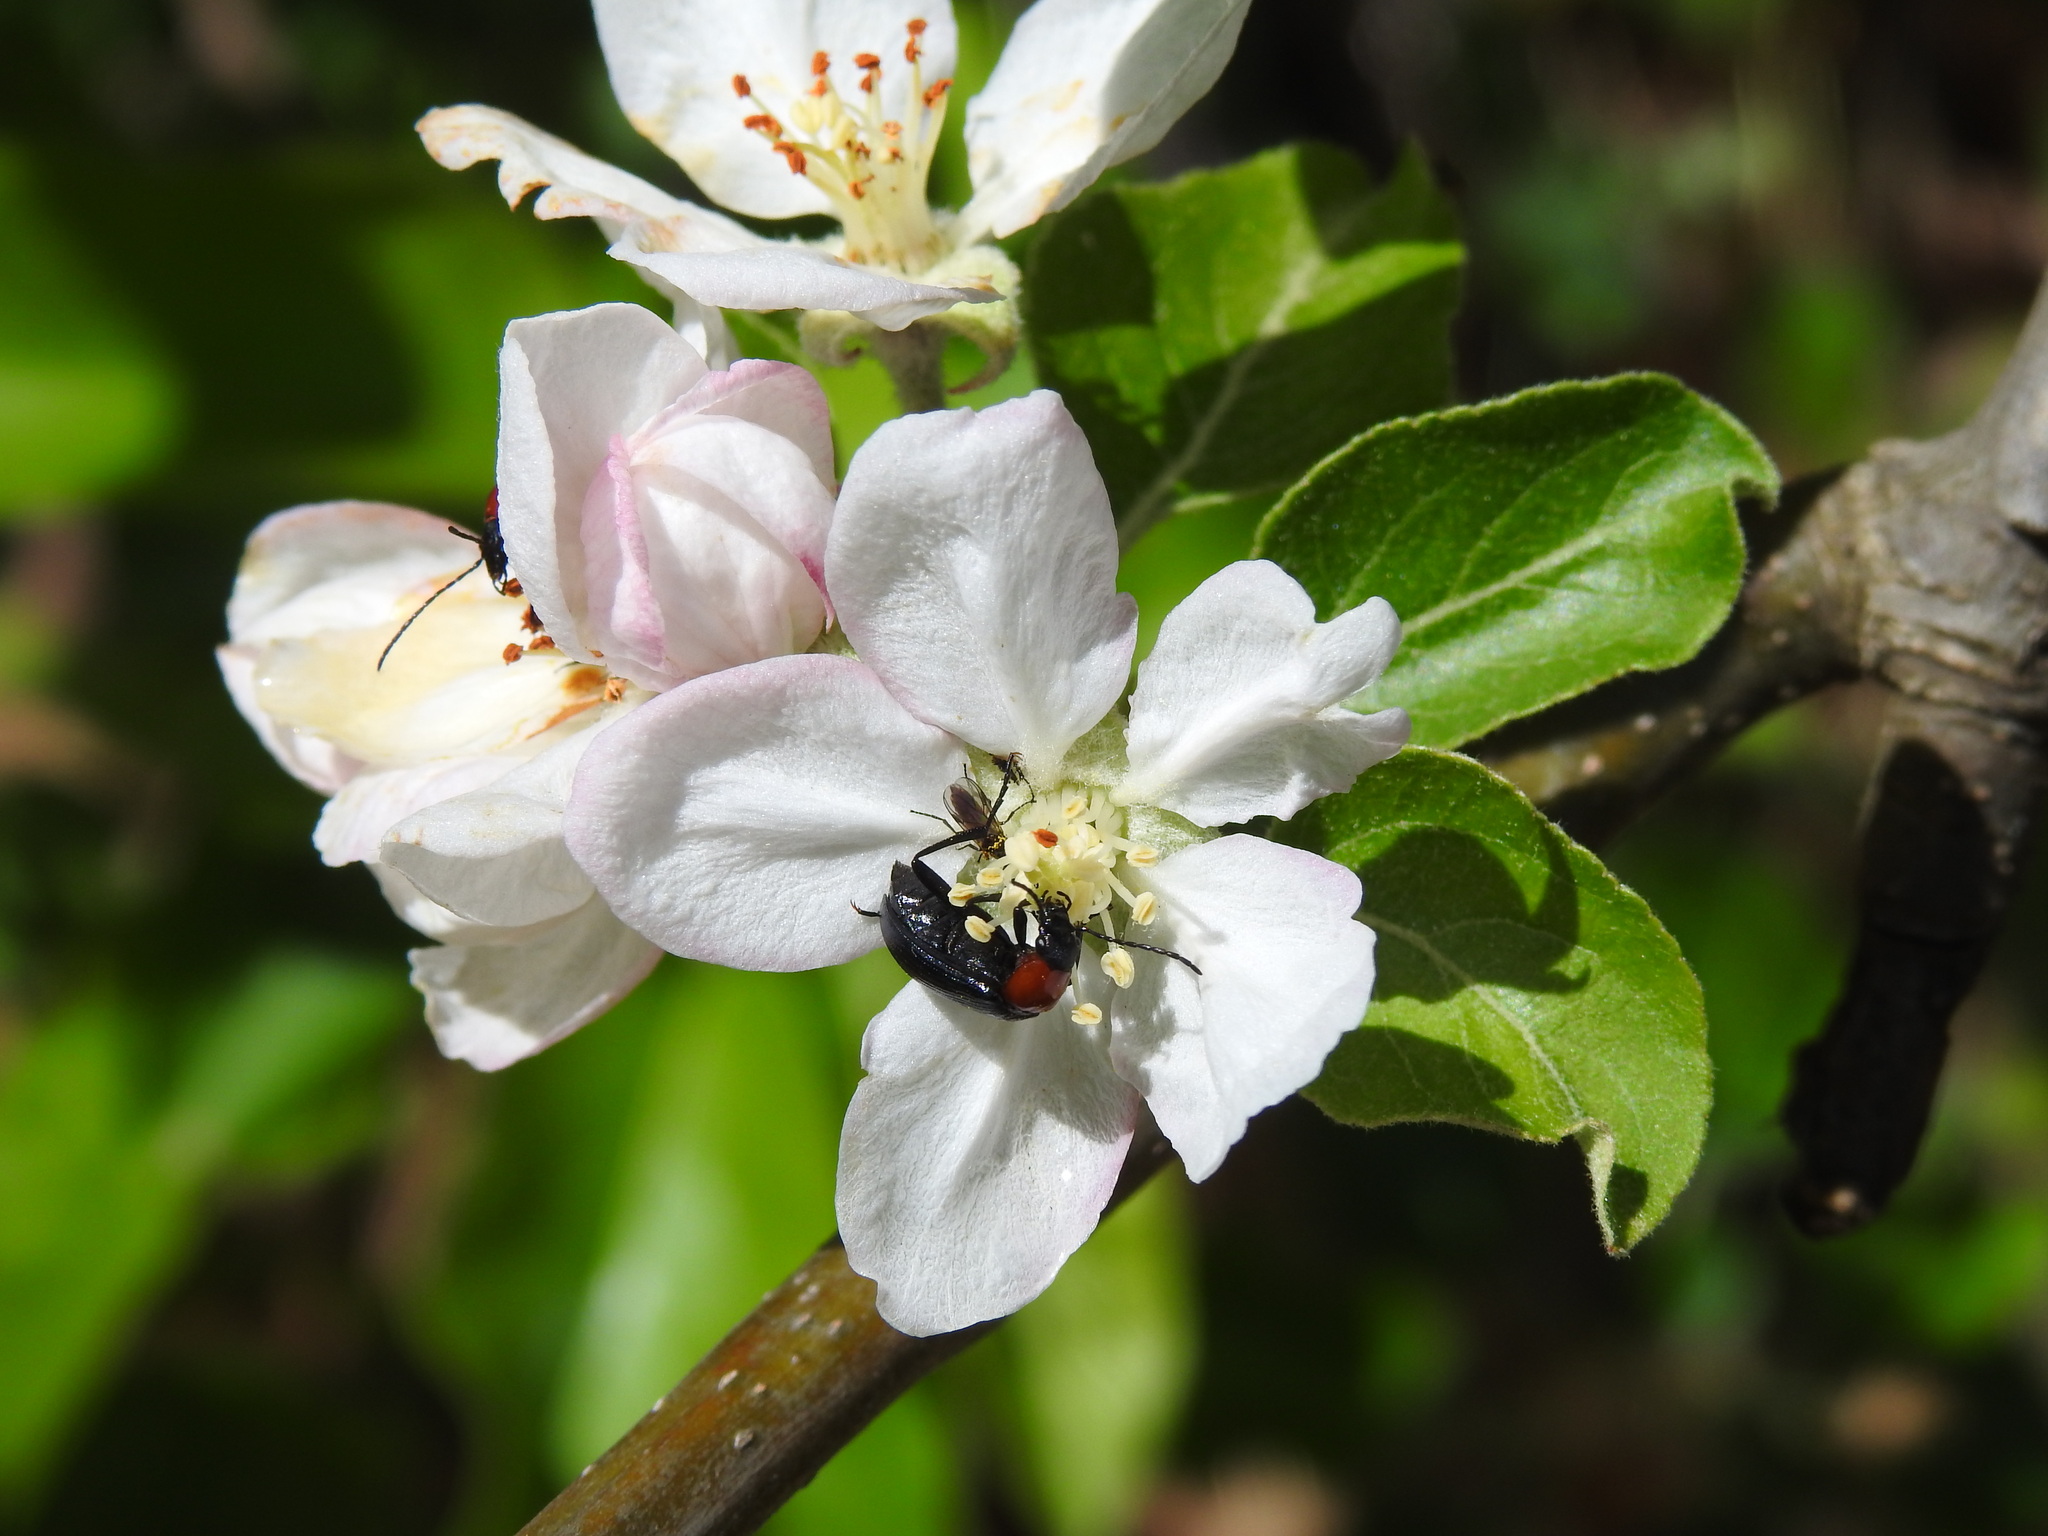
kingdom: Animalia
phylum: Arthropoda
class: Insecta
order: Coleoptera
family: Tenebrionidae
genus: Heliotaurus
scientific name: Heliotaurus ruficollis
